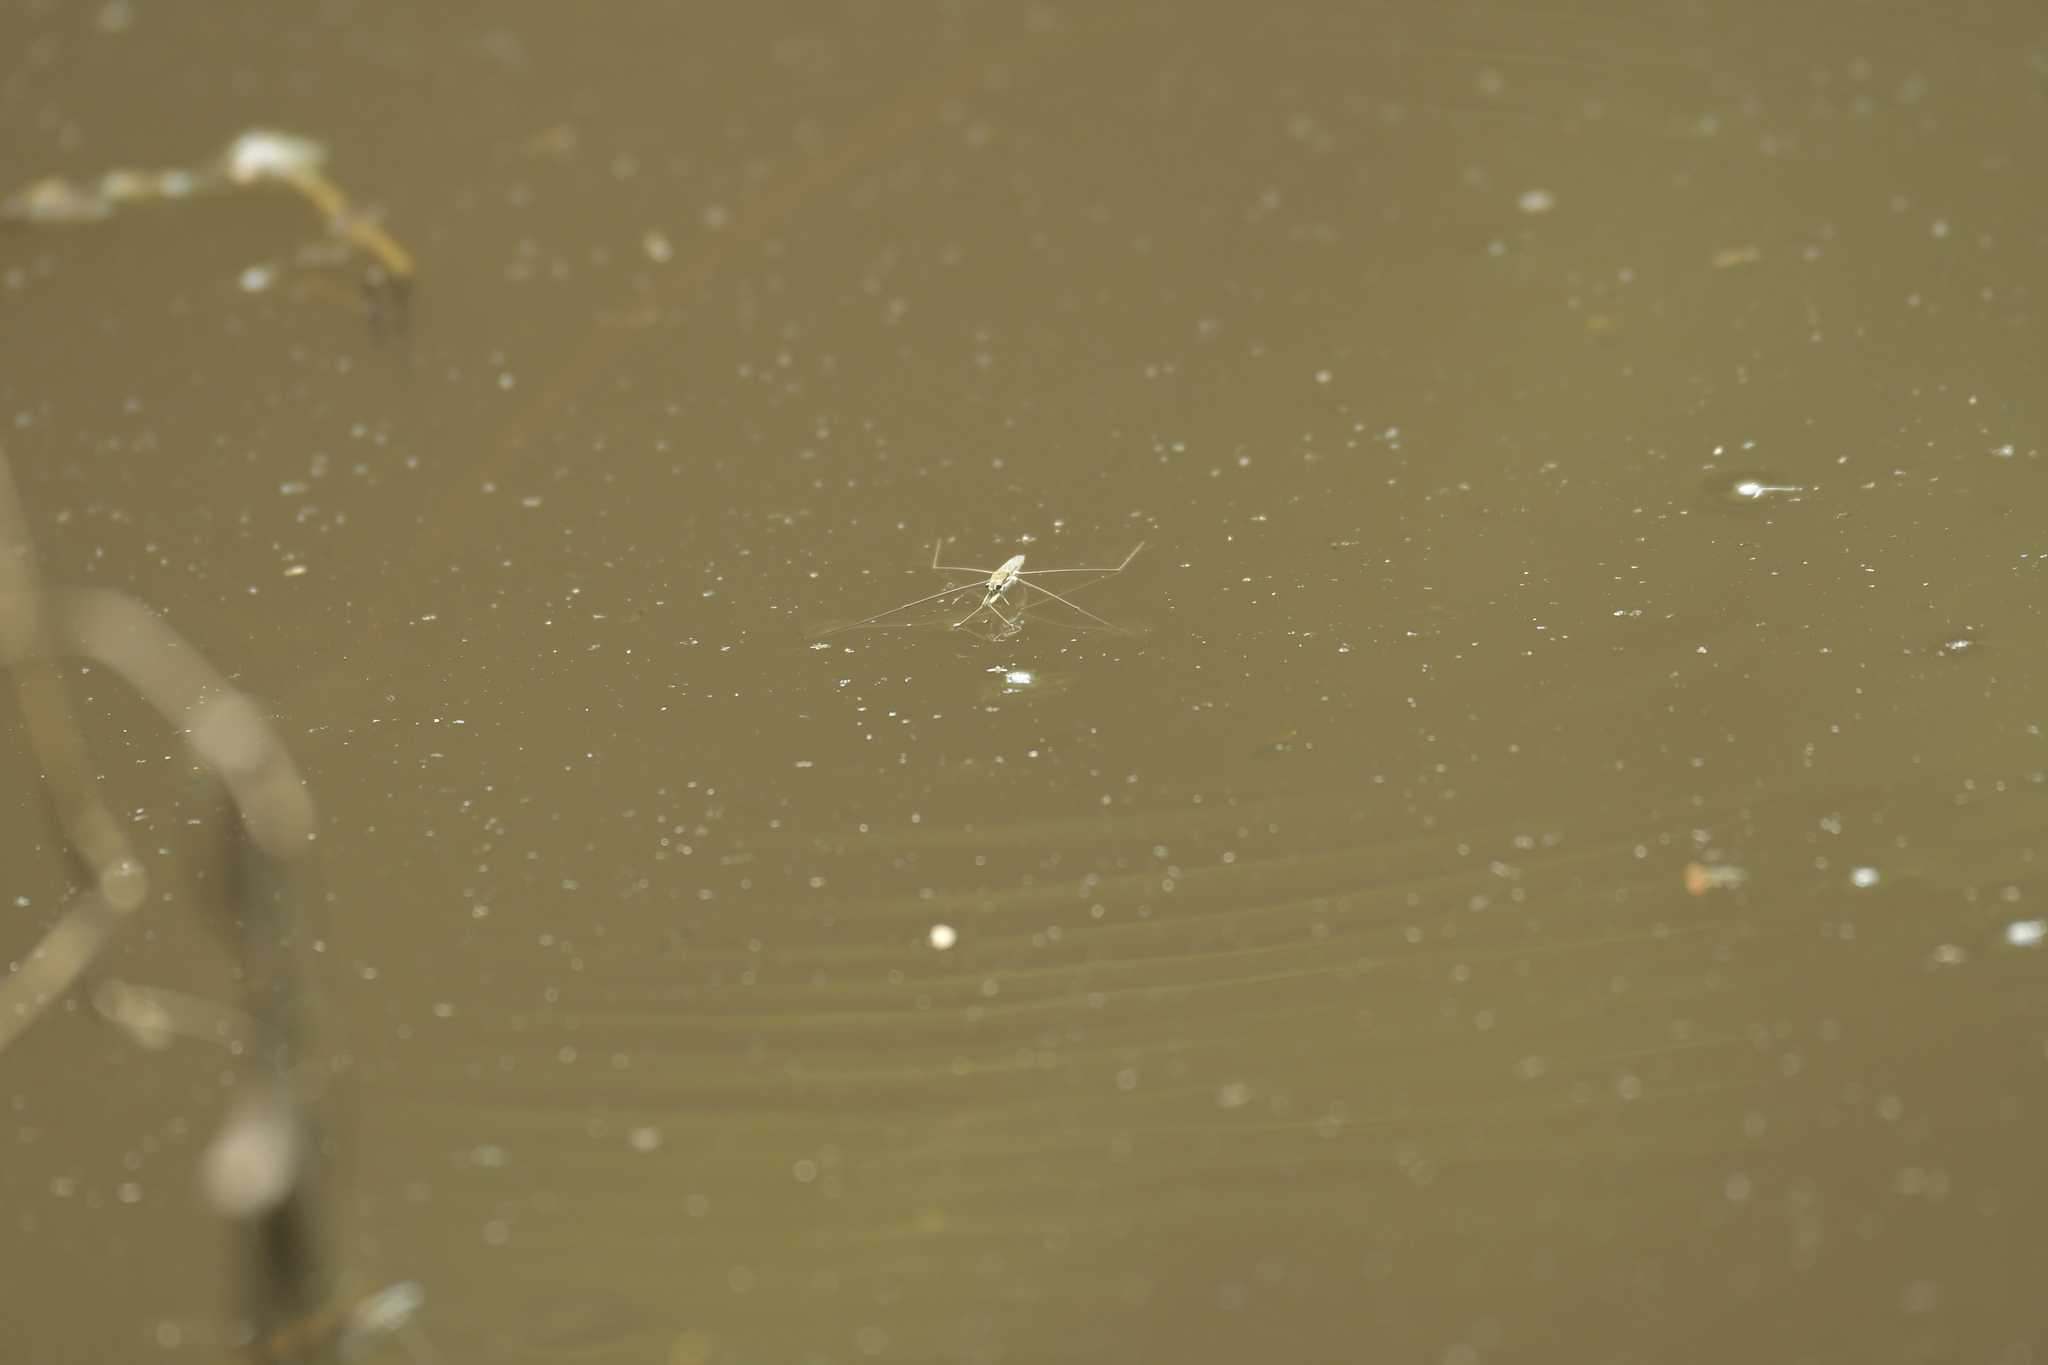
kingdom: Animalia
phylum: Arthropoda
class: Insecta
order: Hemiptera
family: Gerridae
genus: Aquarius
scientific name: Aquarius paludum
